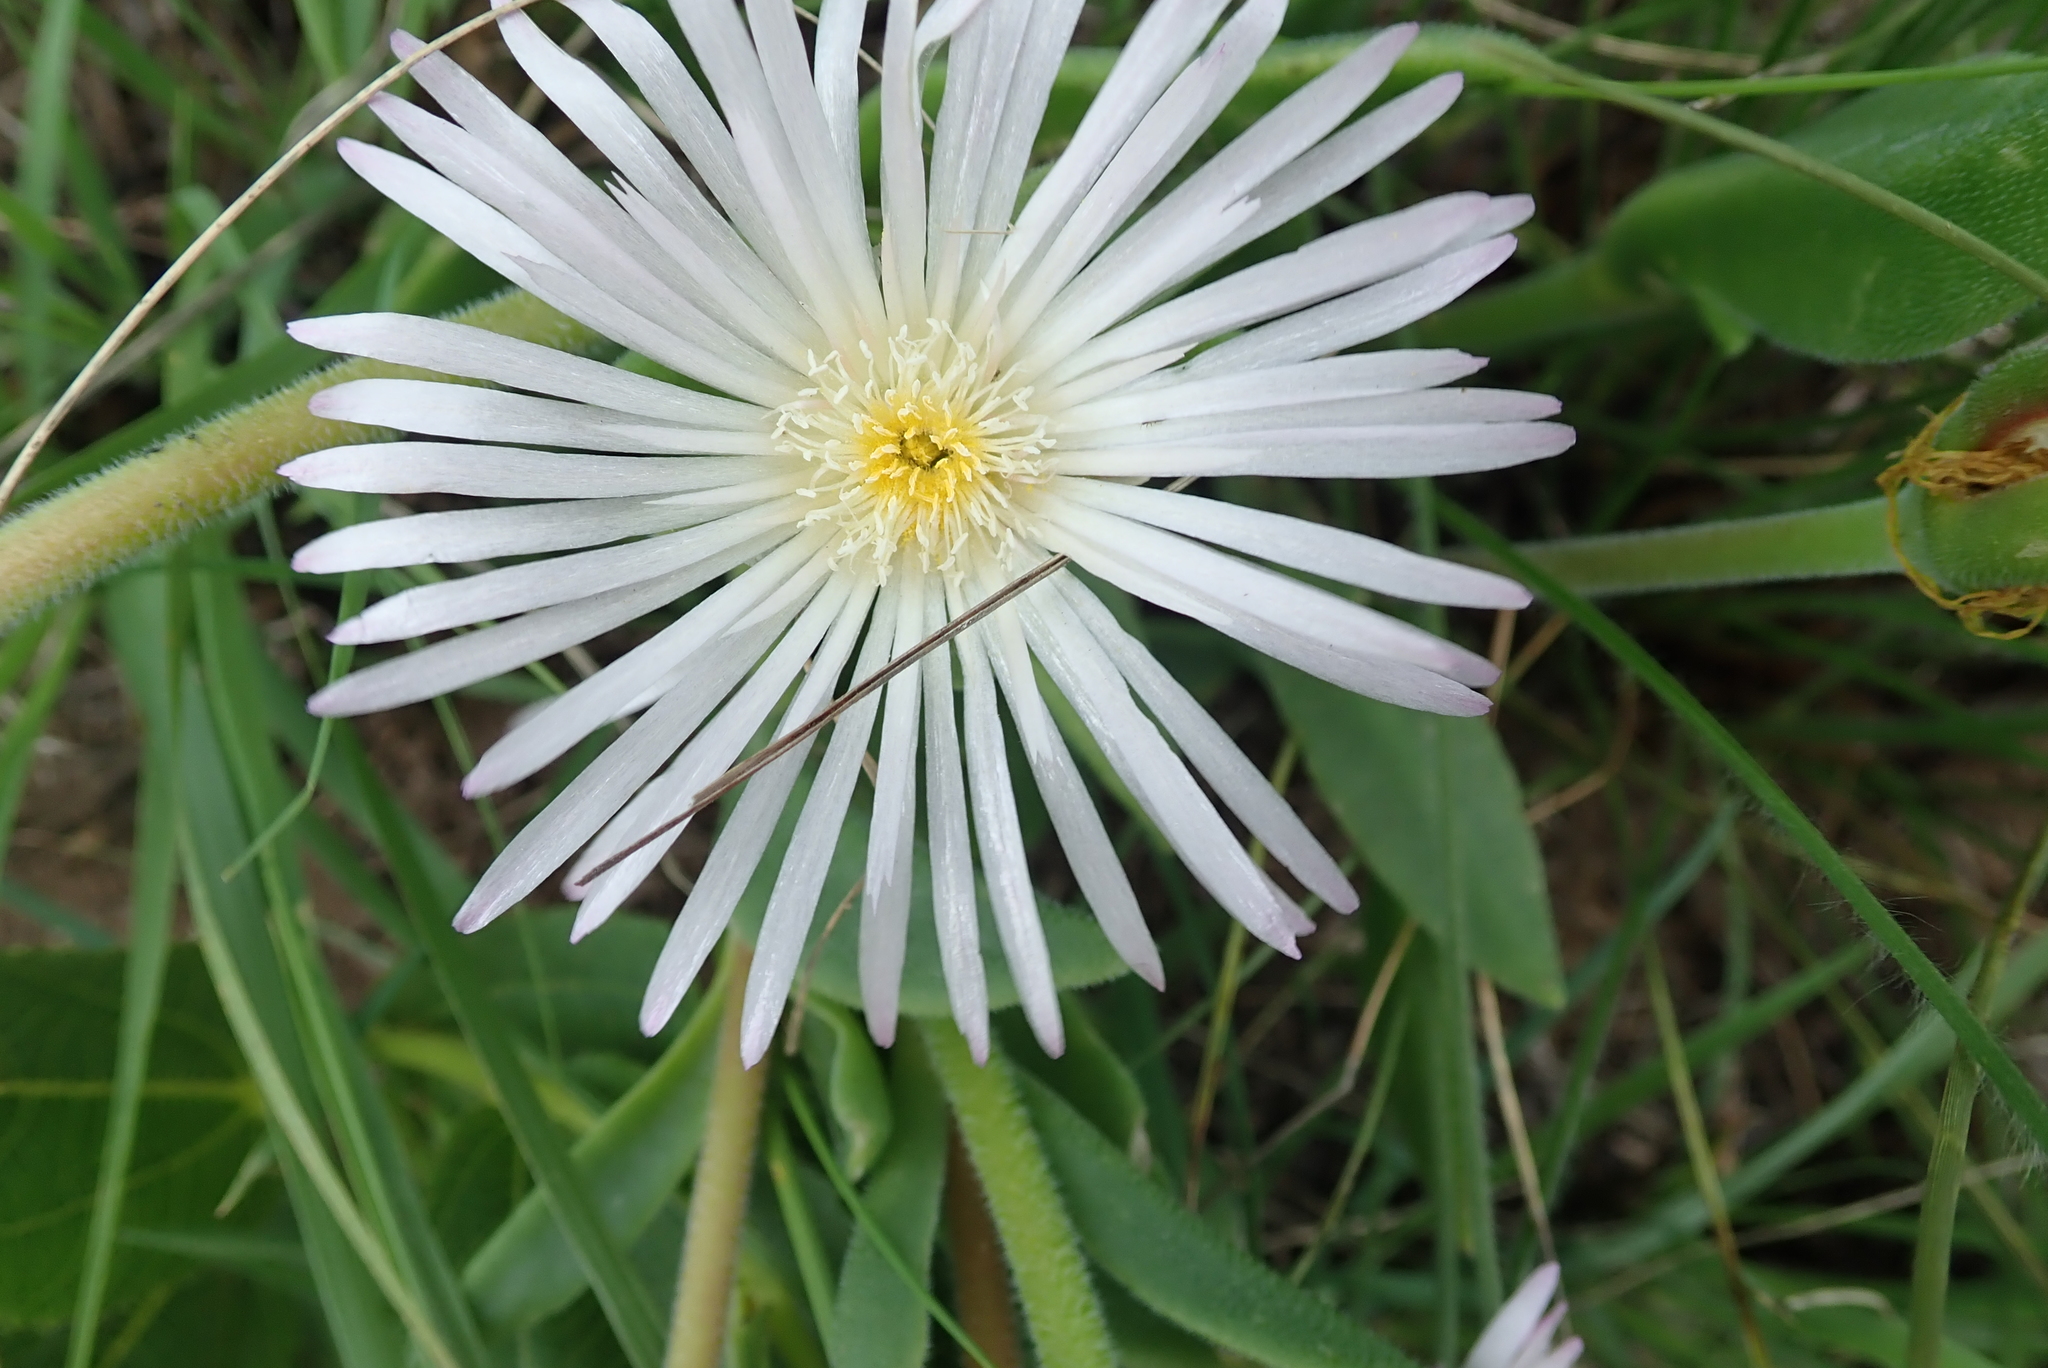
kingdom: Plantae
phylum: Tracheophyta
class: Magnoliopsida
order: Caryophyllales
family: Aizoaceae
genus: Delosperma
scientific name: Delosperma sutherlandii
